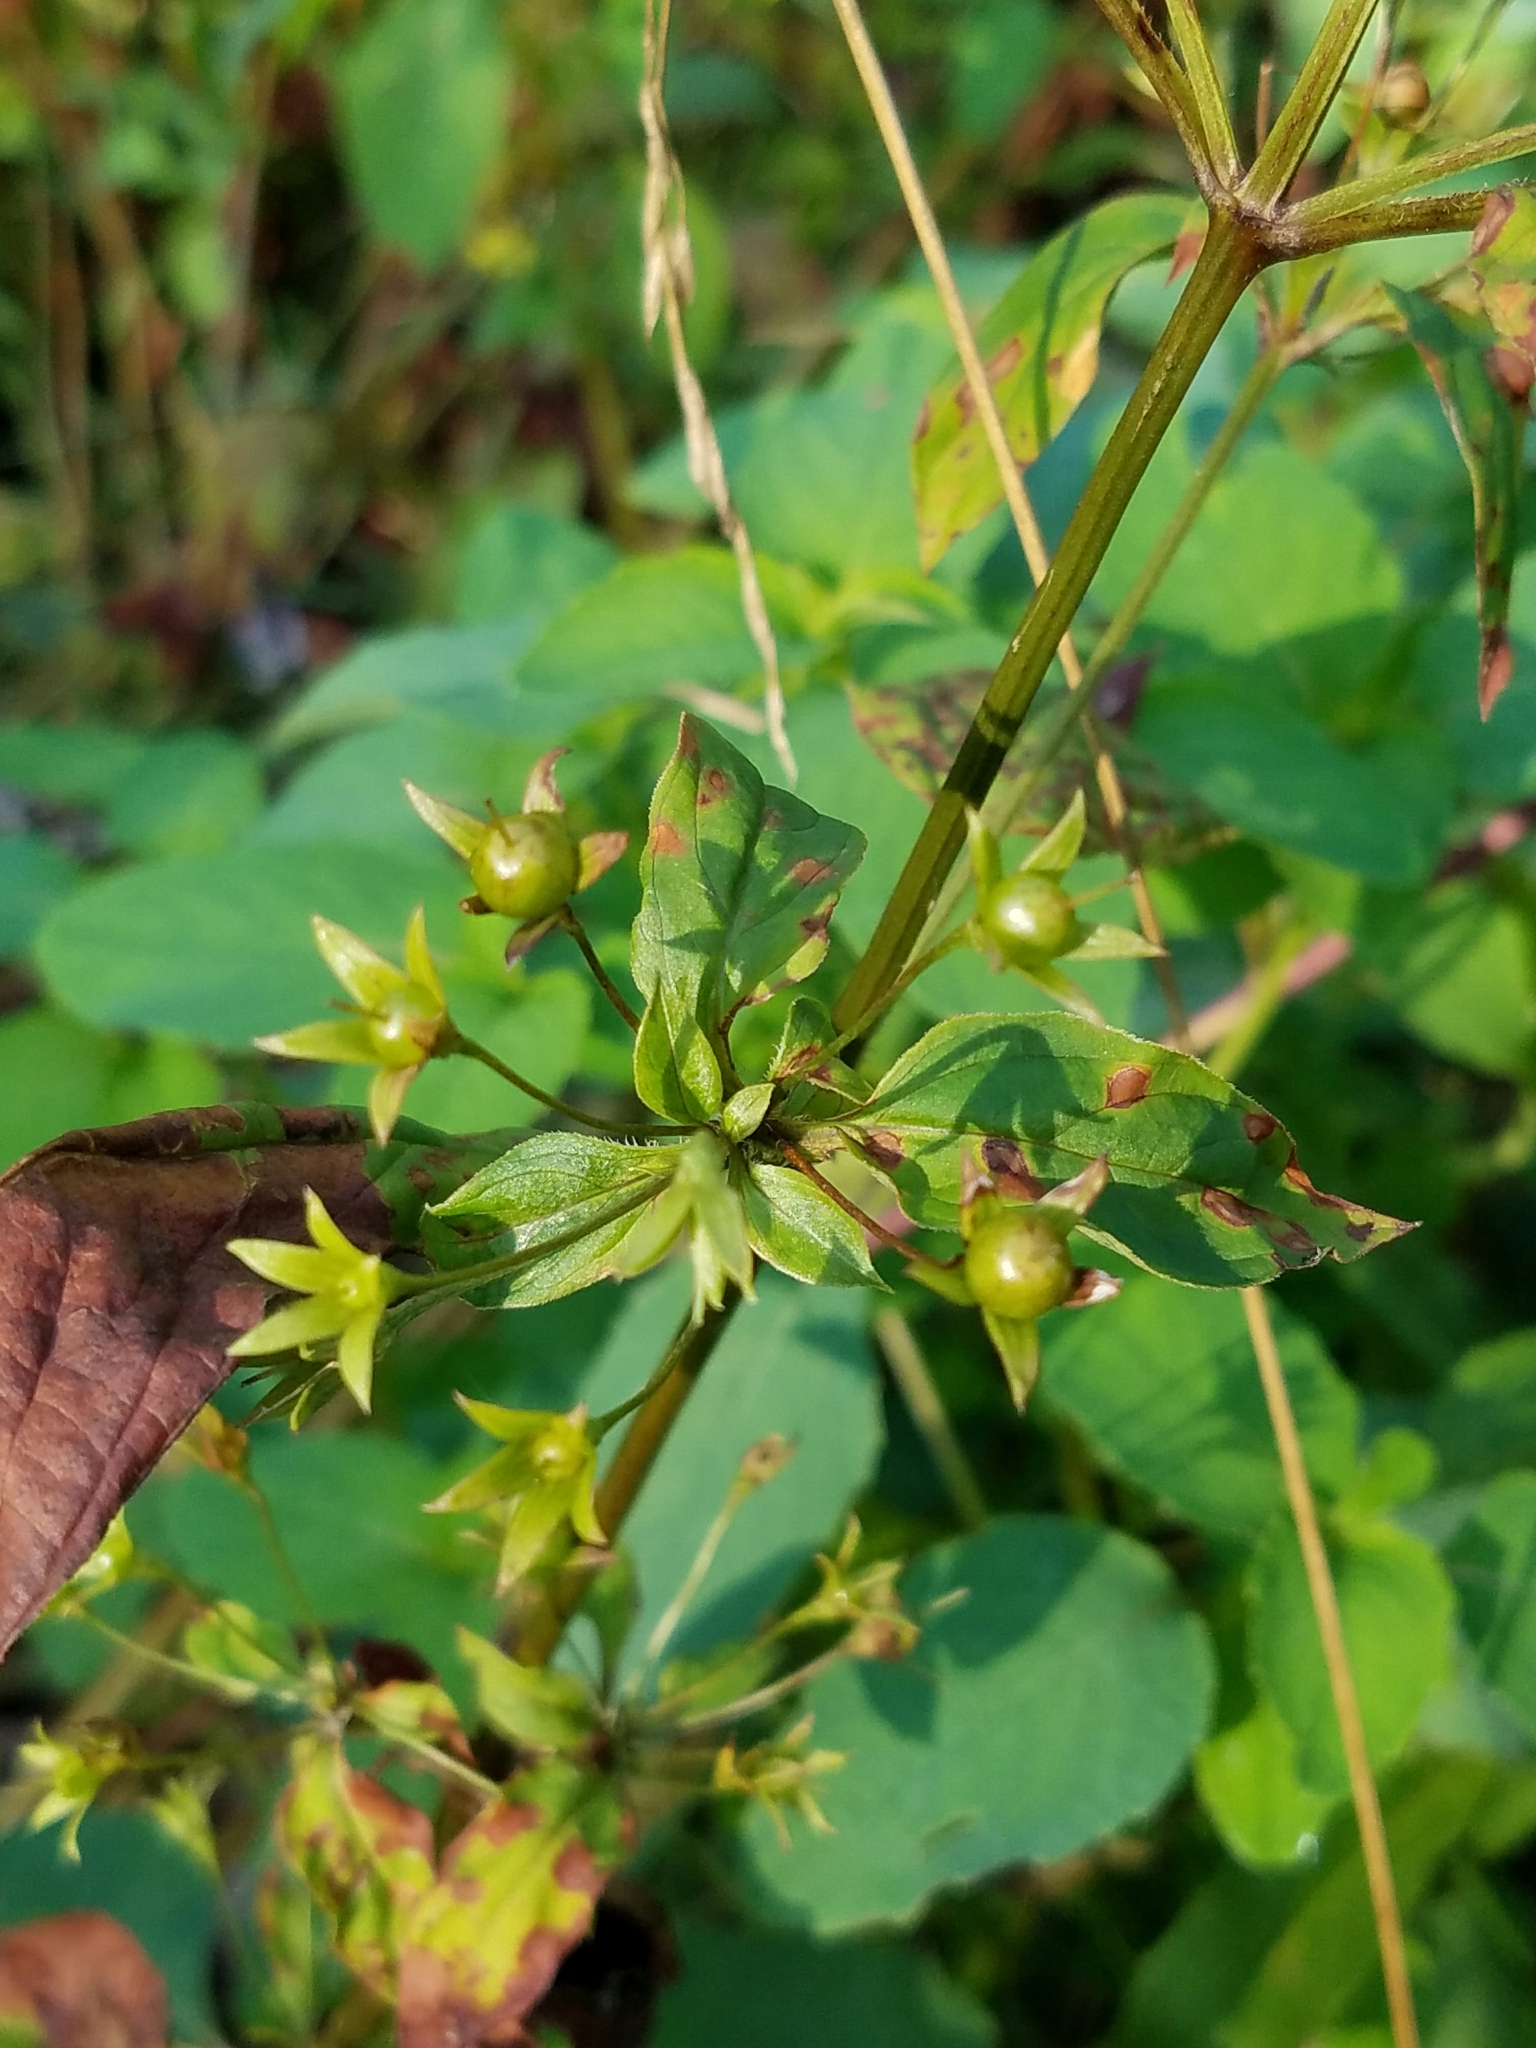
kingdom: Plantae
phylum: Tracheophyta
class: Magnoliopsida
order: Ericales
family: Primulaceae
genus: Lysimachia
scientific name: Lysimachia ciliata
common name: Fringed loosestrife
